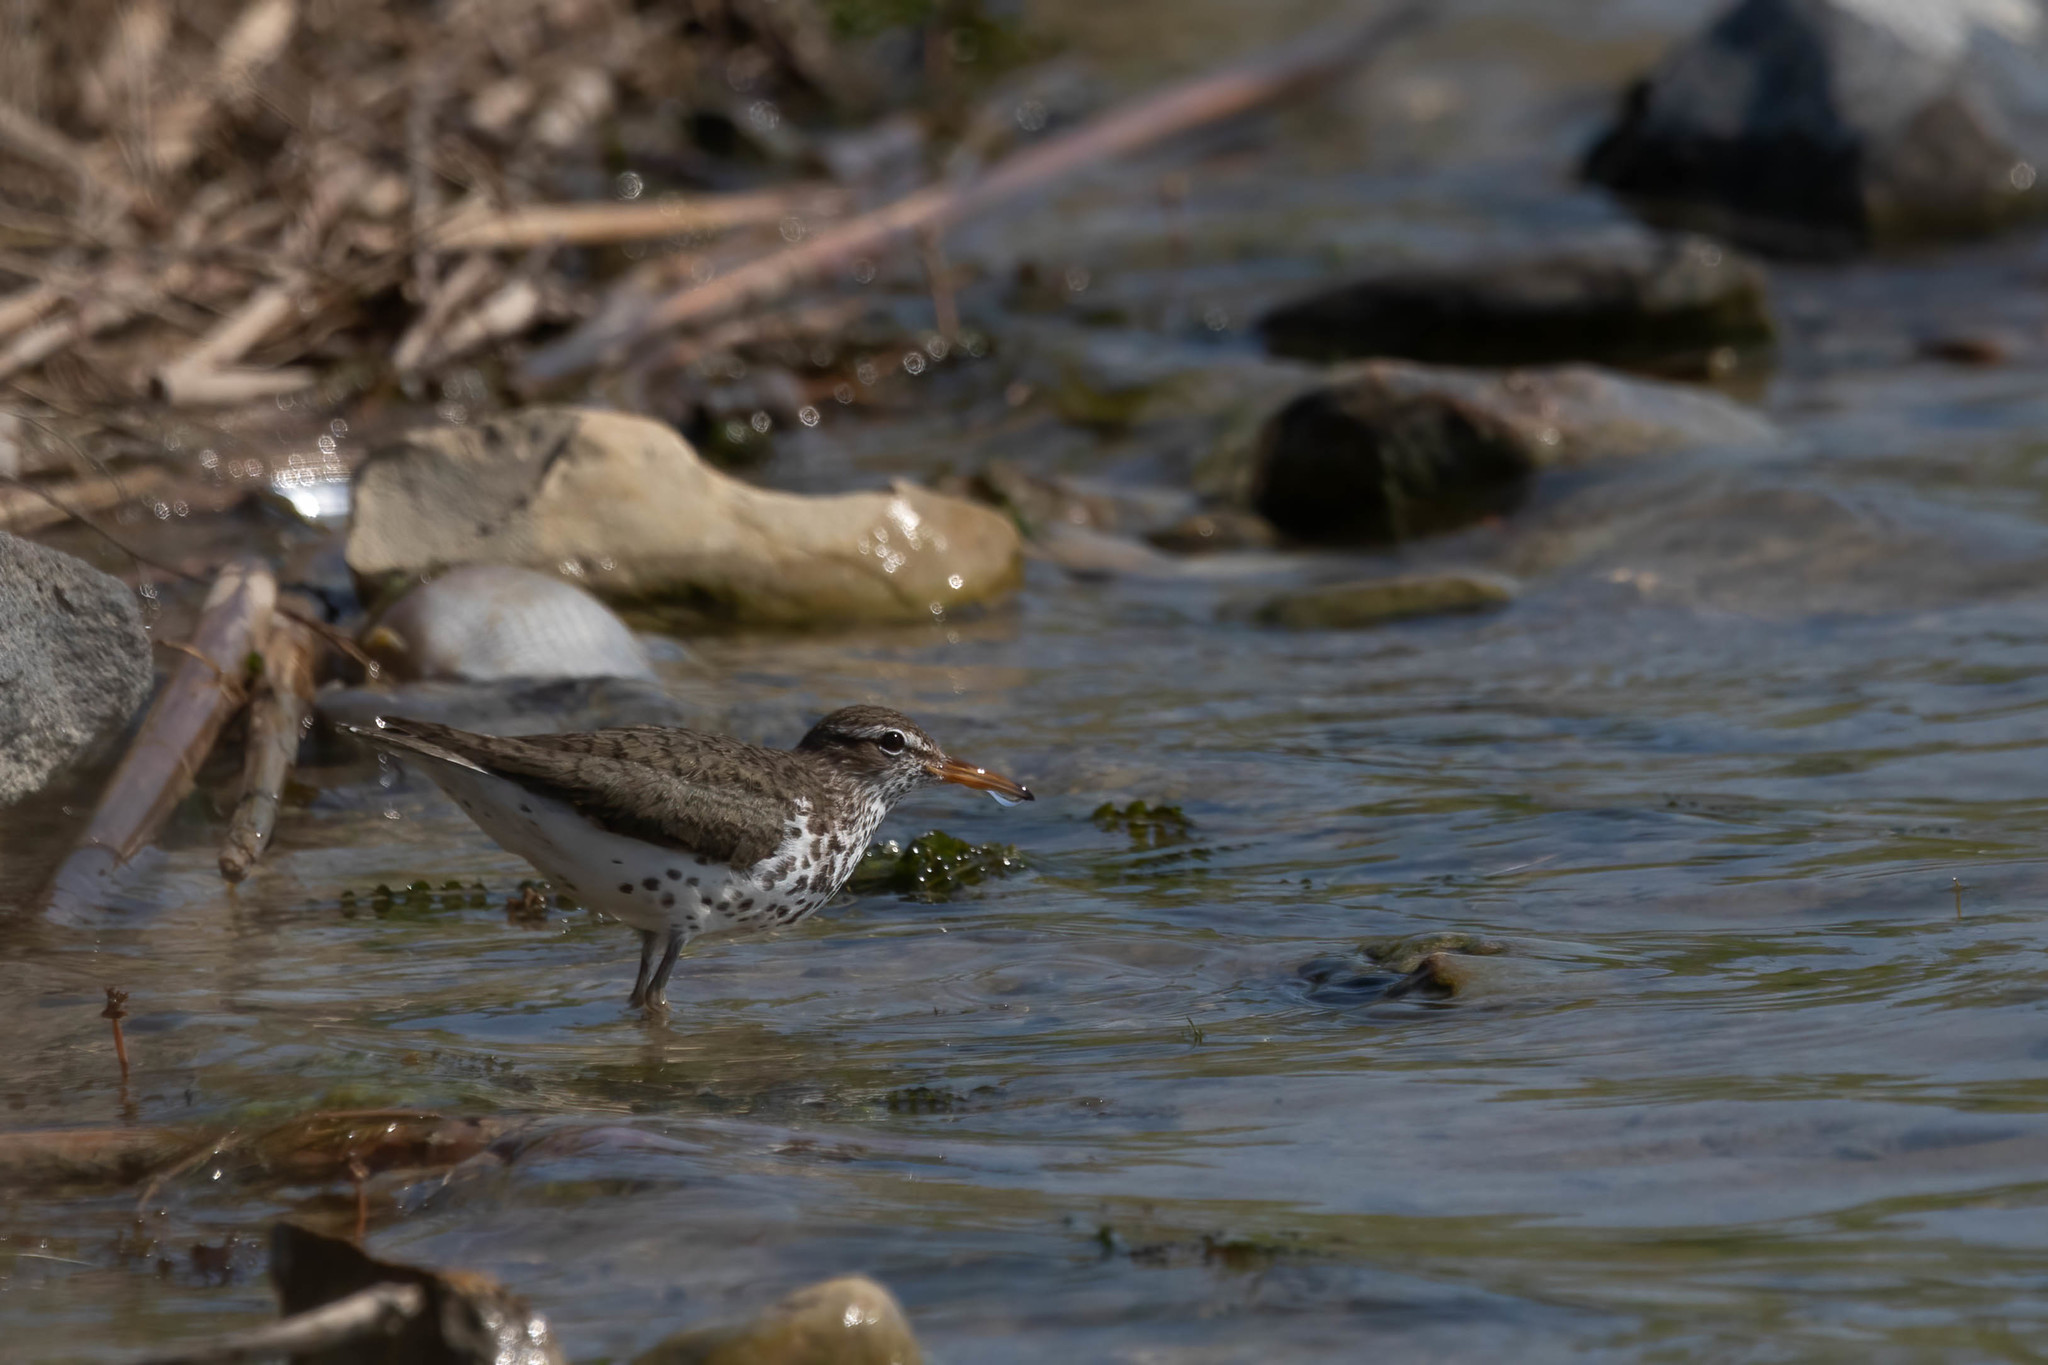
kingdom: Animalia
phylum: Chordata
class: Aves
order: Charadriiformes
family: Scolopacidae
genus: Actitis
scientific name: Actitis macularius
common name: Spotted sandpiper
